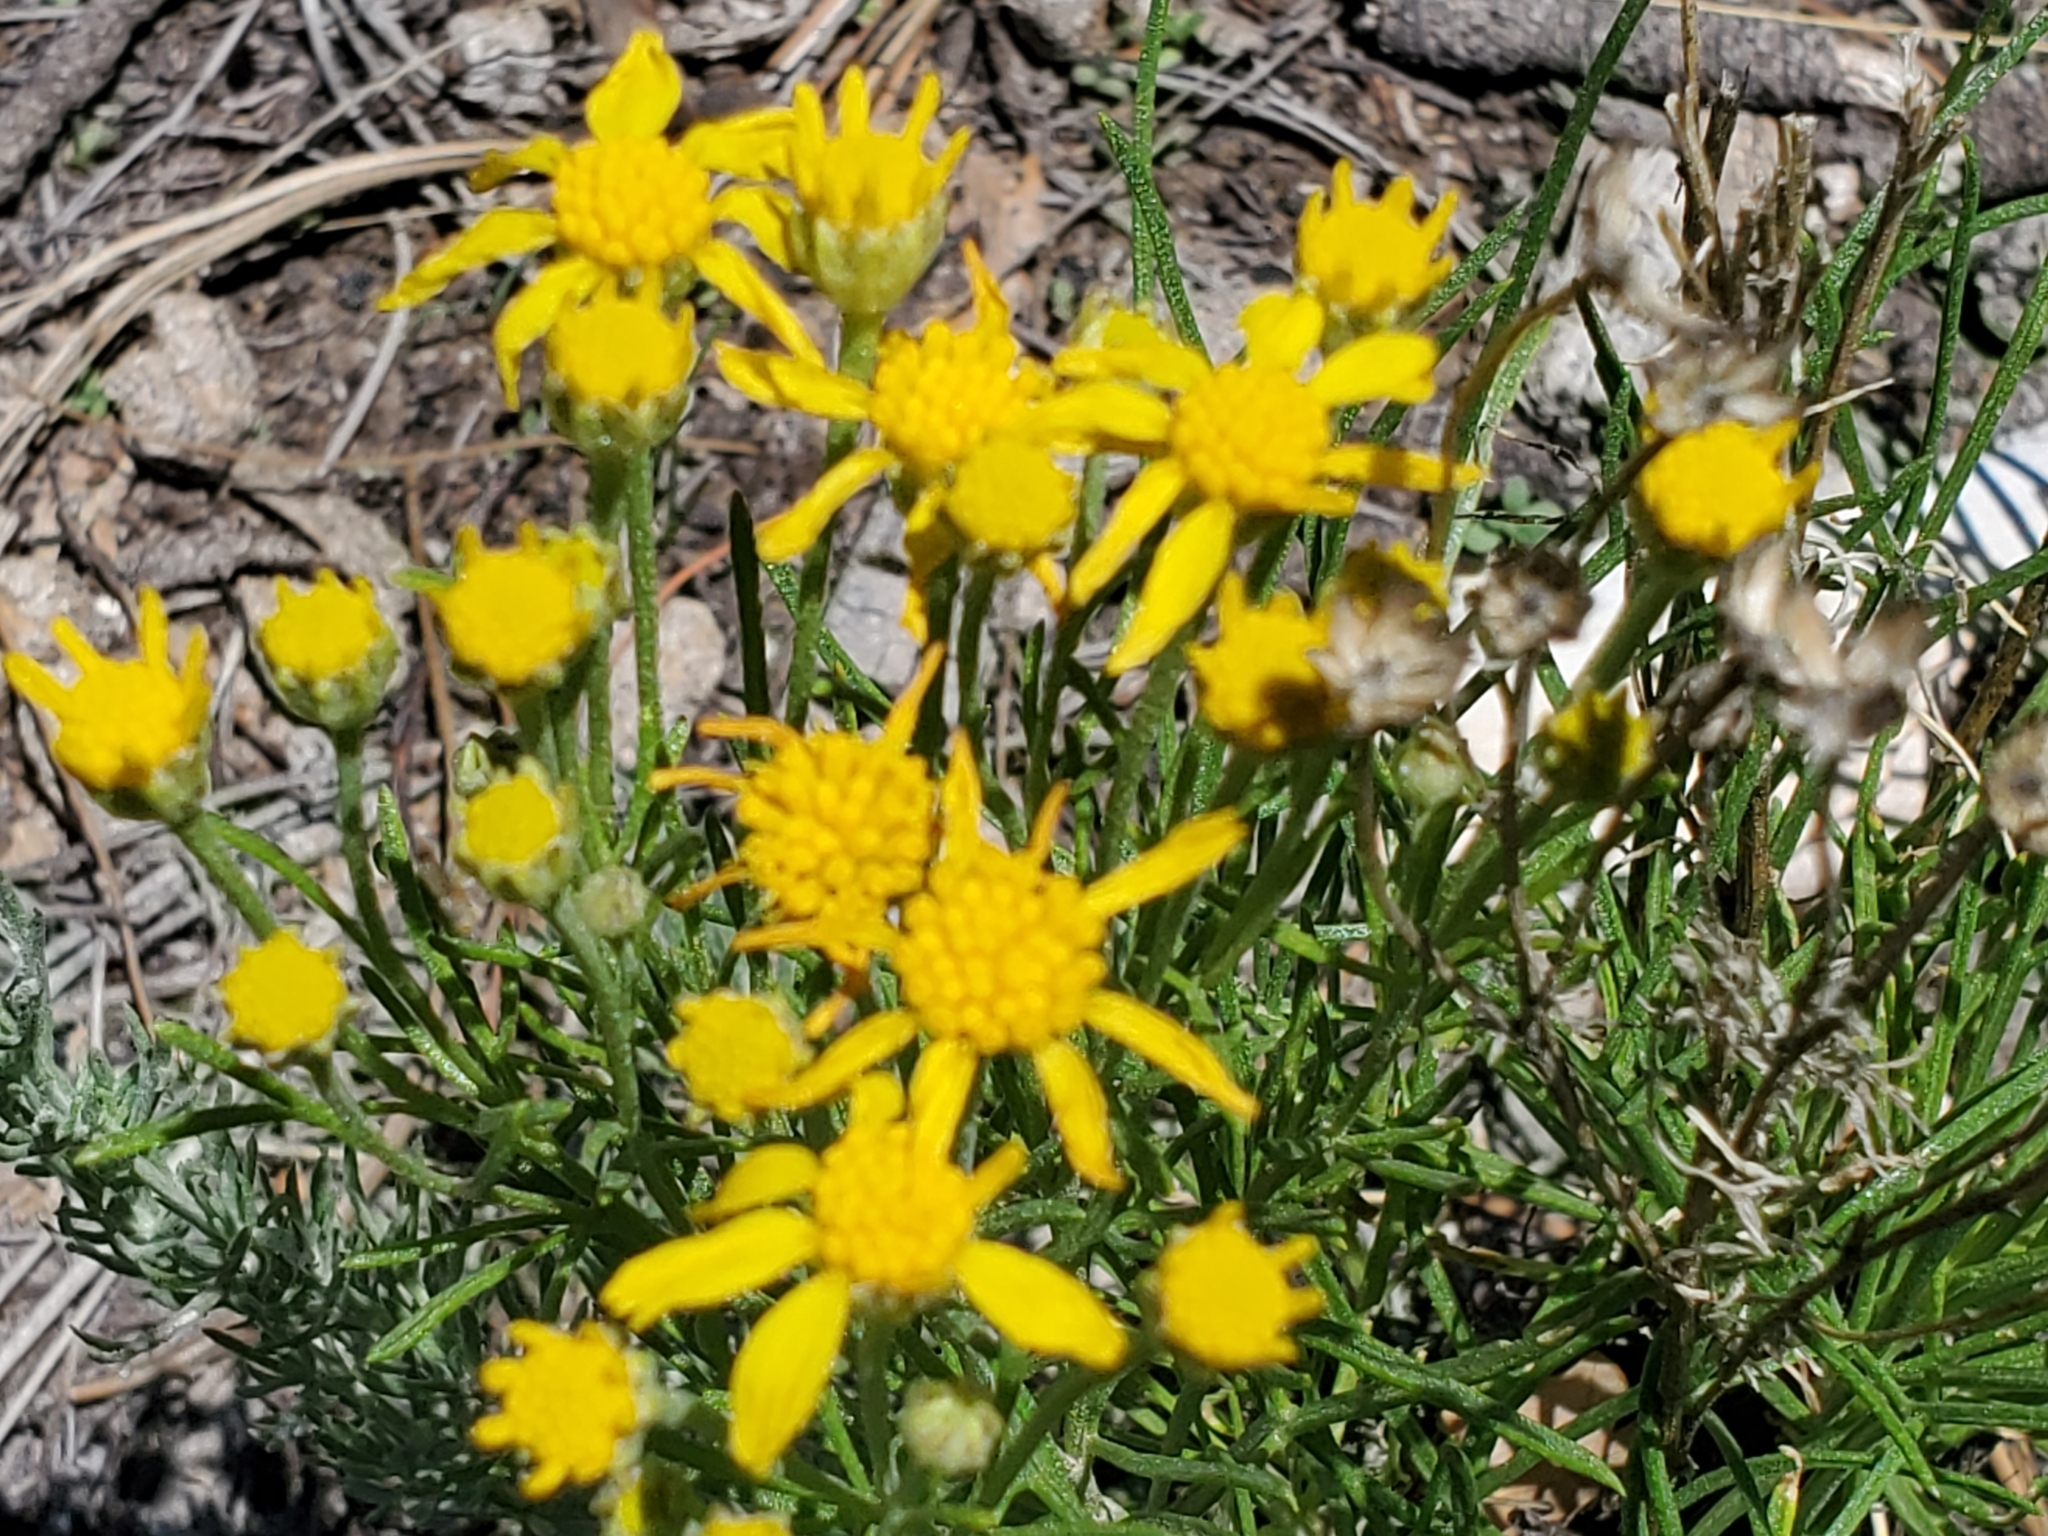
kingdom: Plantae
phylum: Tracheophyta
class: Magnoliopsida
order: Asterales
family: Asteraceae
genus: Hymenoxys
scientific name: Hymenoxys richardsonii
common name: Pingue rubberweed
